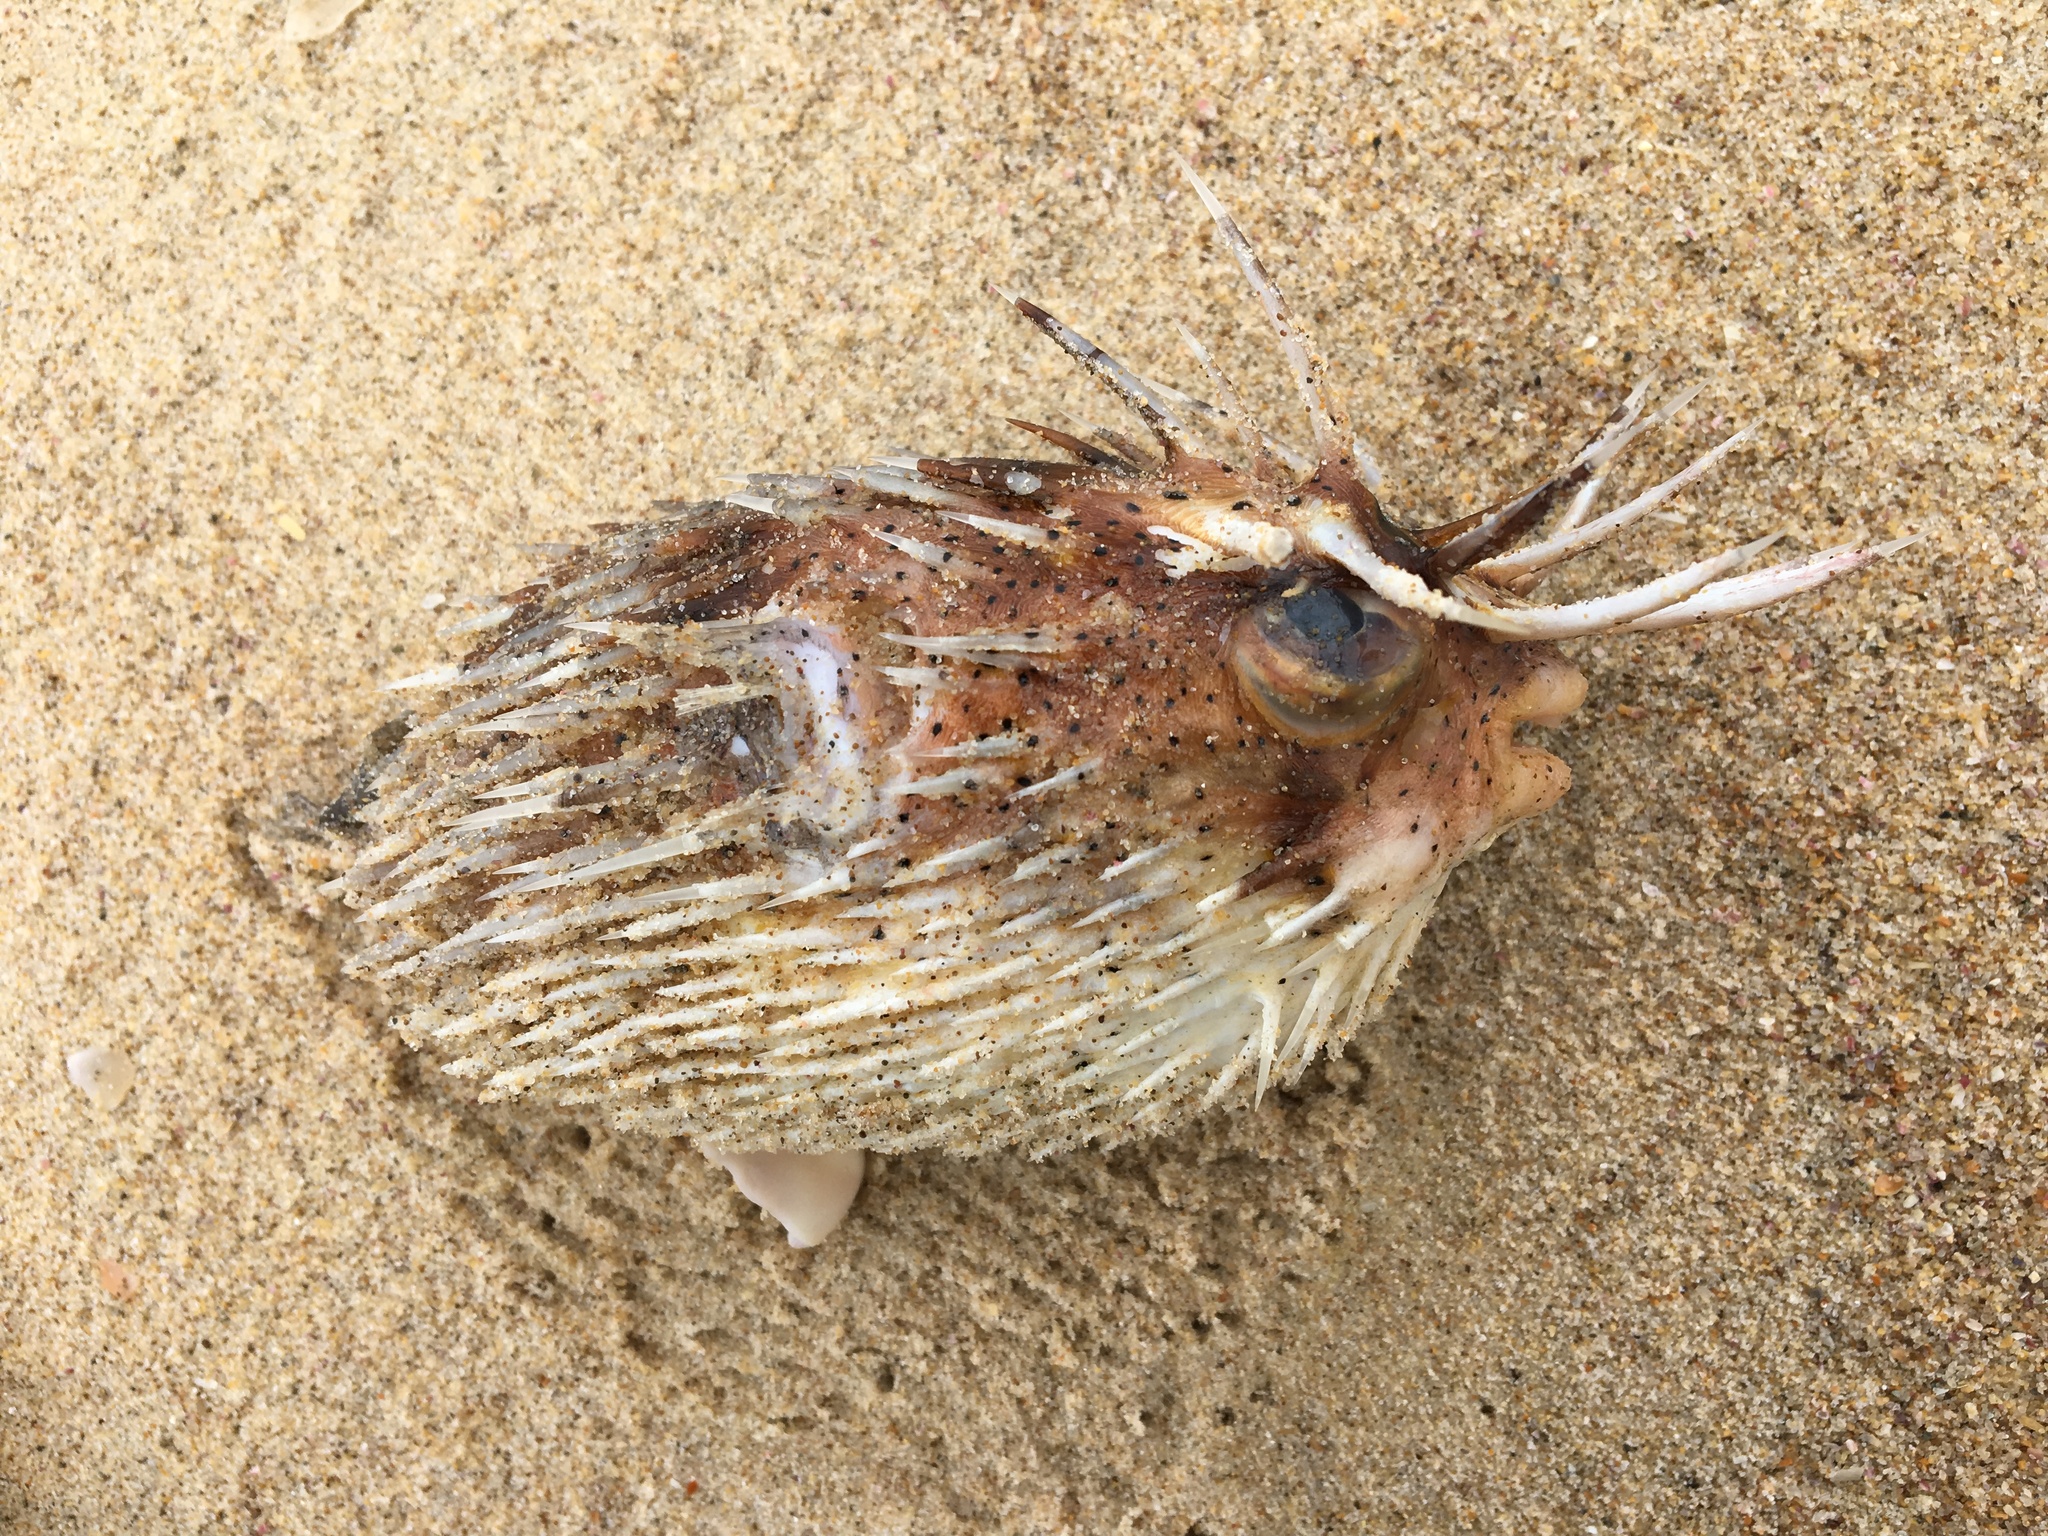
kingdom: Animalia
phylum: Chordata
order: Tetraodontiformes
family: Diodontidae
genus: Diodon
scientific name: Diodon holocanthus
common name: Balloonfish
